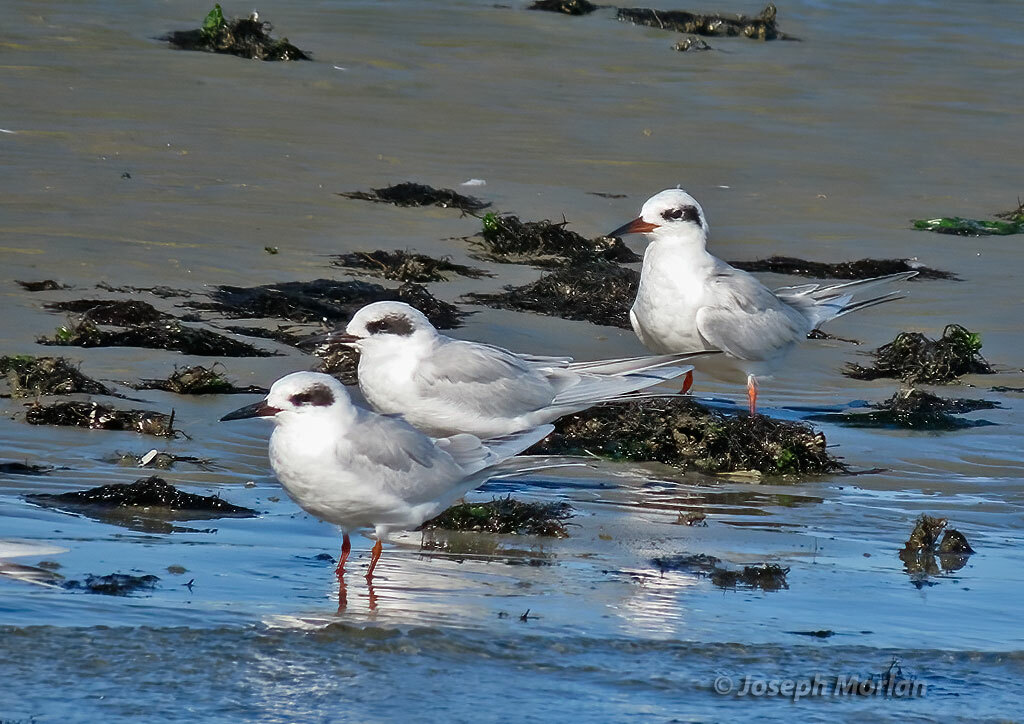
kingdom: Animalia
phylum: Chordata
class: Aves
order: Charadriiformes
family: Laridae
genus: Sterna
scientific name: Sterna forsteri
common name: Forster's tern
